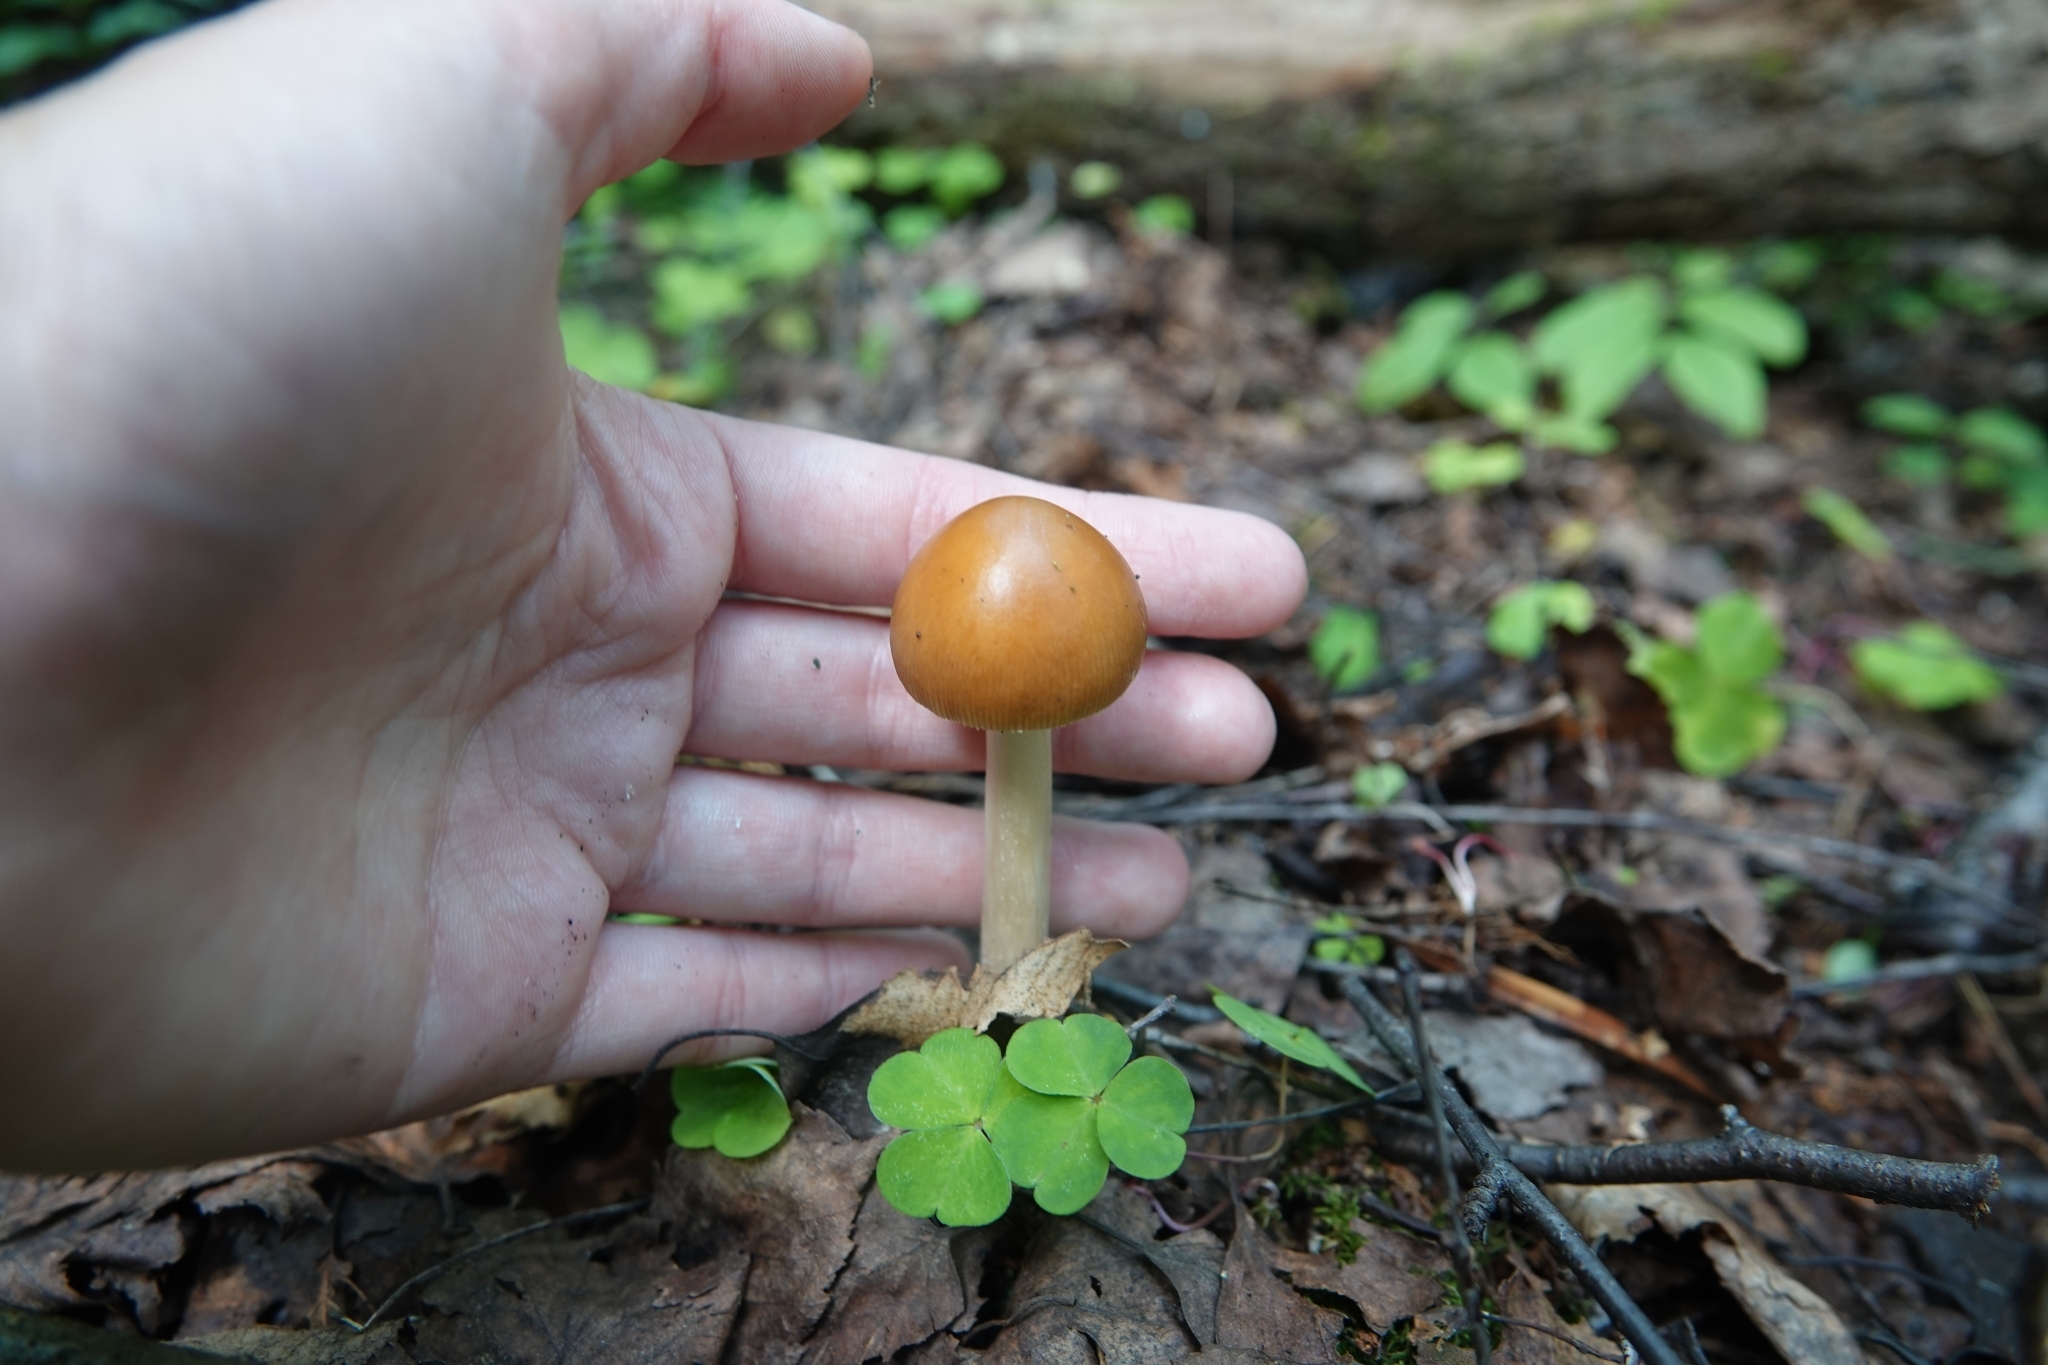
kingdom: Fungi
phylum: Basidiomycota
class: Agaricomycetes
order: Agaricales
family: Amanitaceae
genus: Amanita
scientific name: Amanita fulva
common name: Tawny grisette
